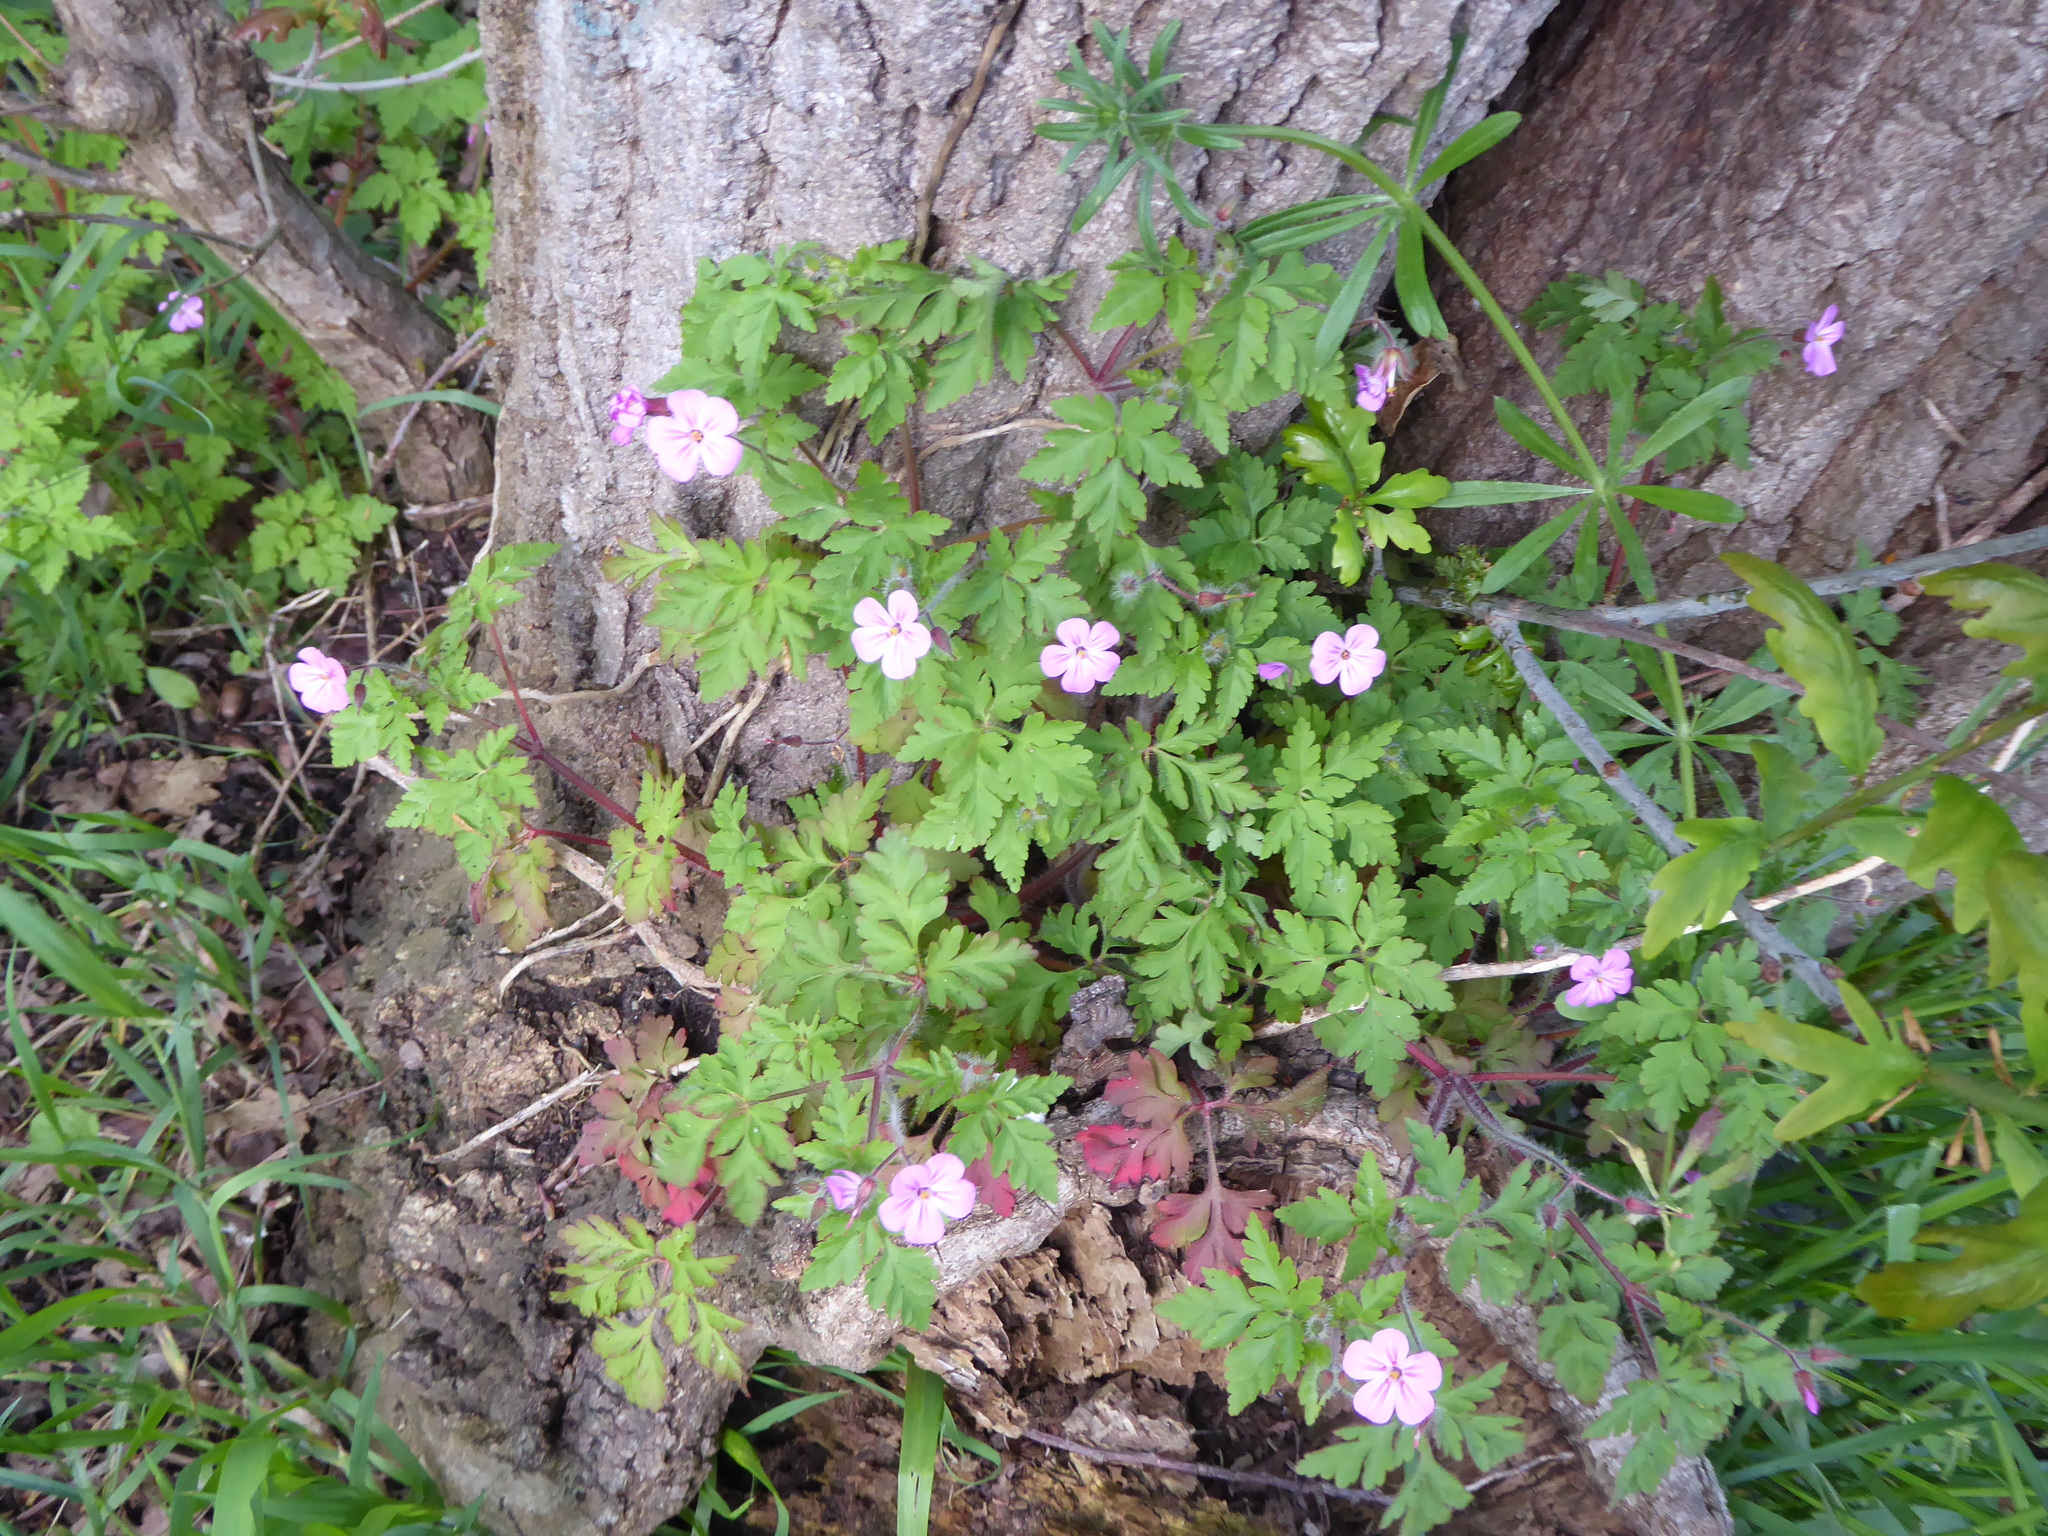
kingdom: Plantae
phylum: Tracheophyta
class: Magnoliopsida
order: Geraniales
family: Geraniaceae
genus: Geranium
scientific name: Geranium robertianum
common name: Herb-robert
